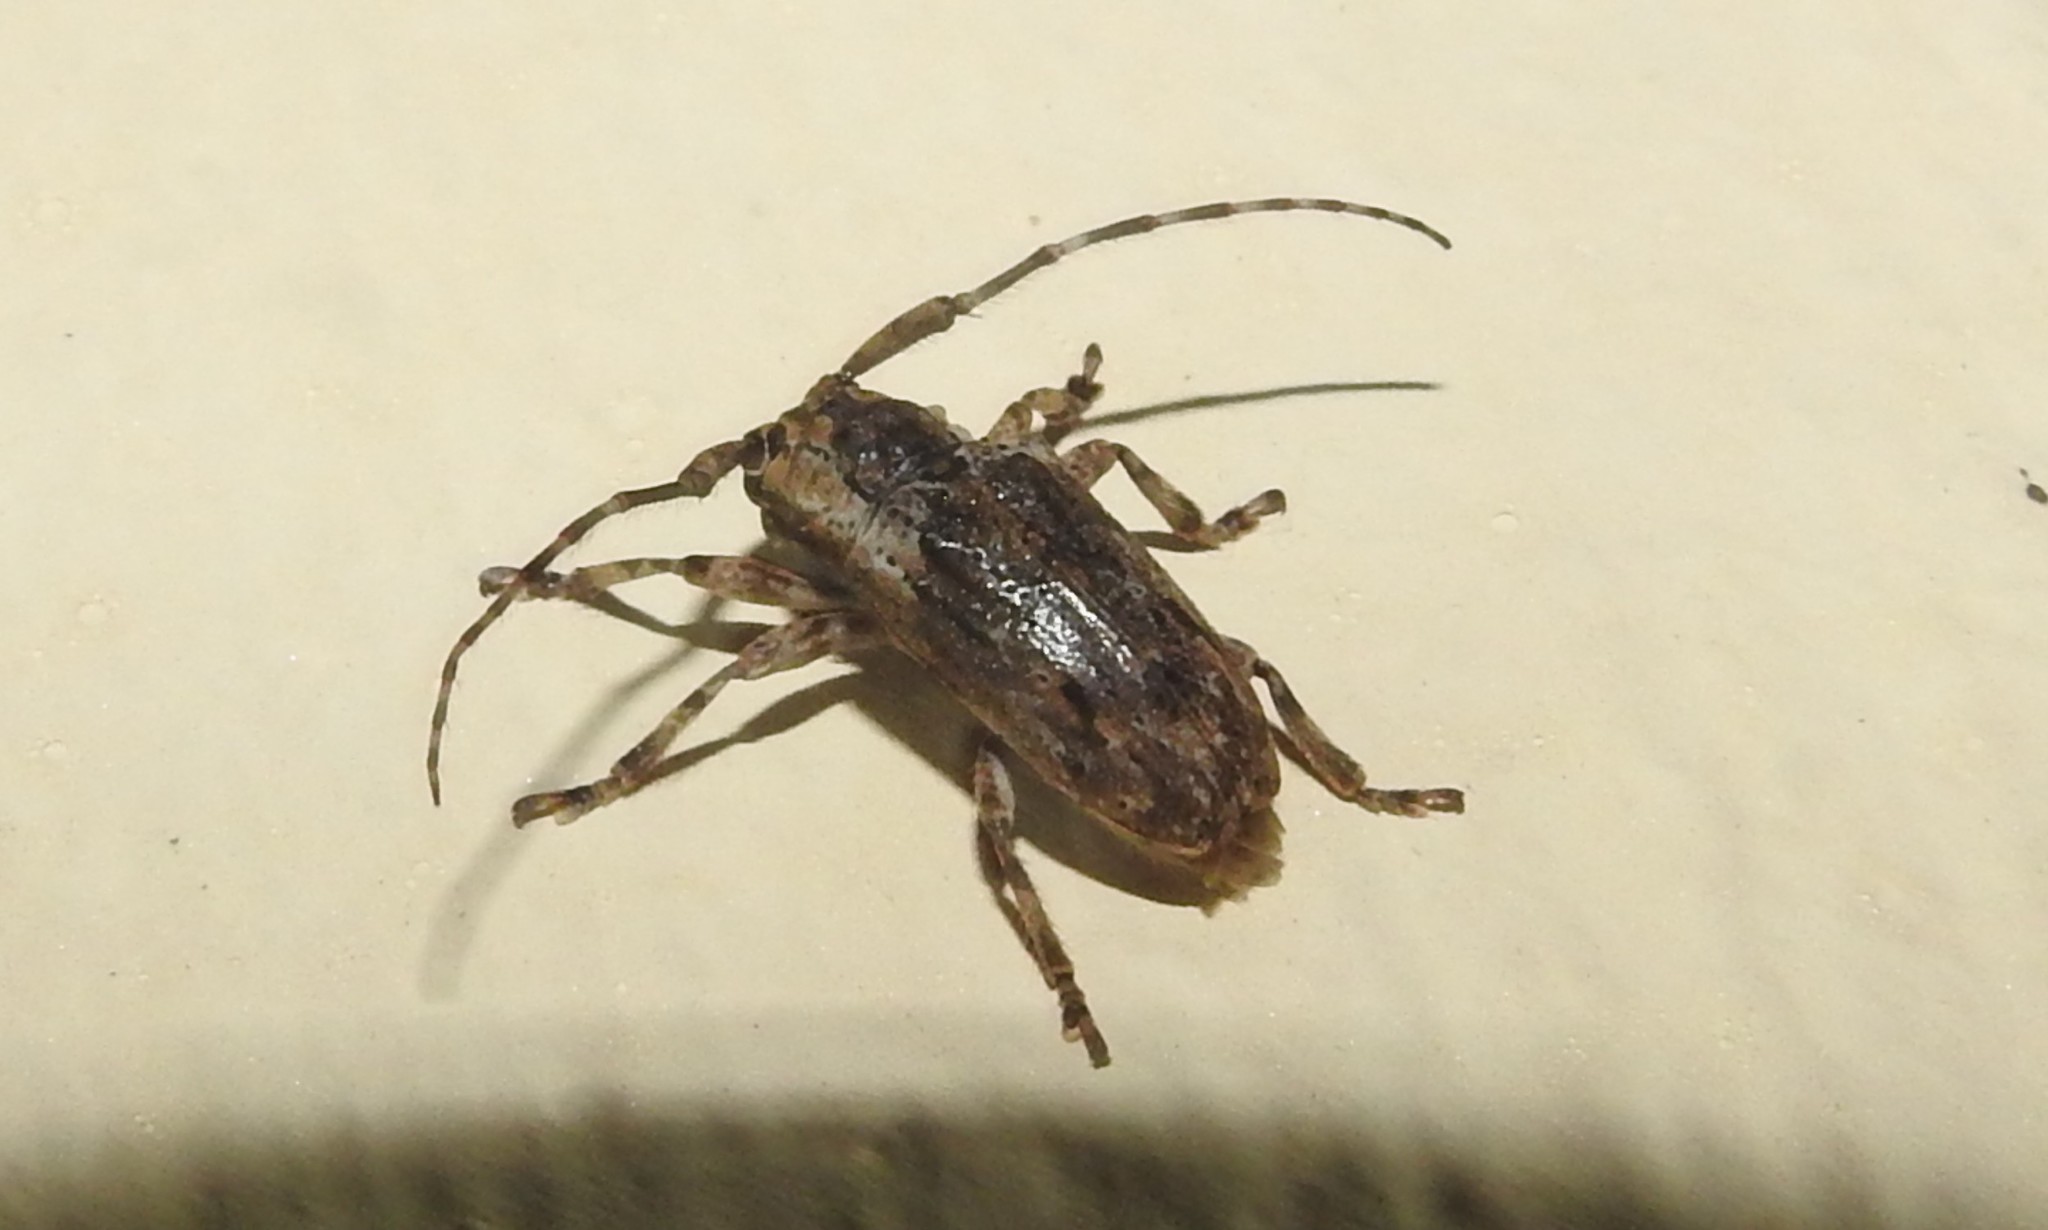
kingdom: Animalia
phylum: Arthropoda
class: Insecta
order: Coleoptera
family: Cerambycidae
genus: Coptops
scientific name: Coptops aedificator
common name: Long-horned beetle
